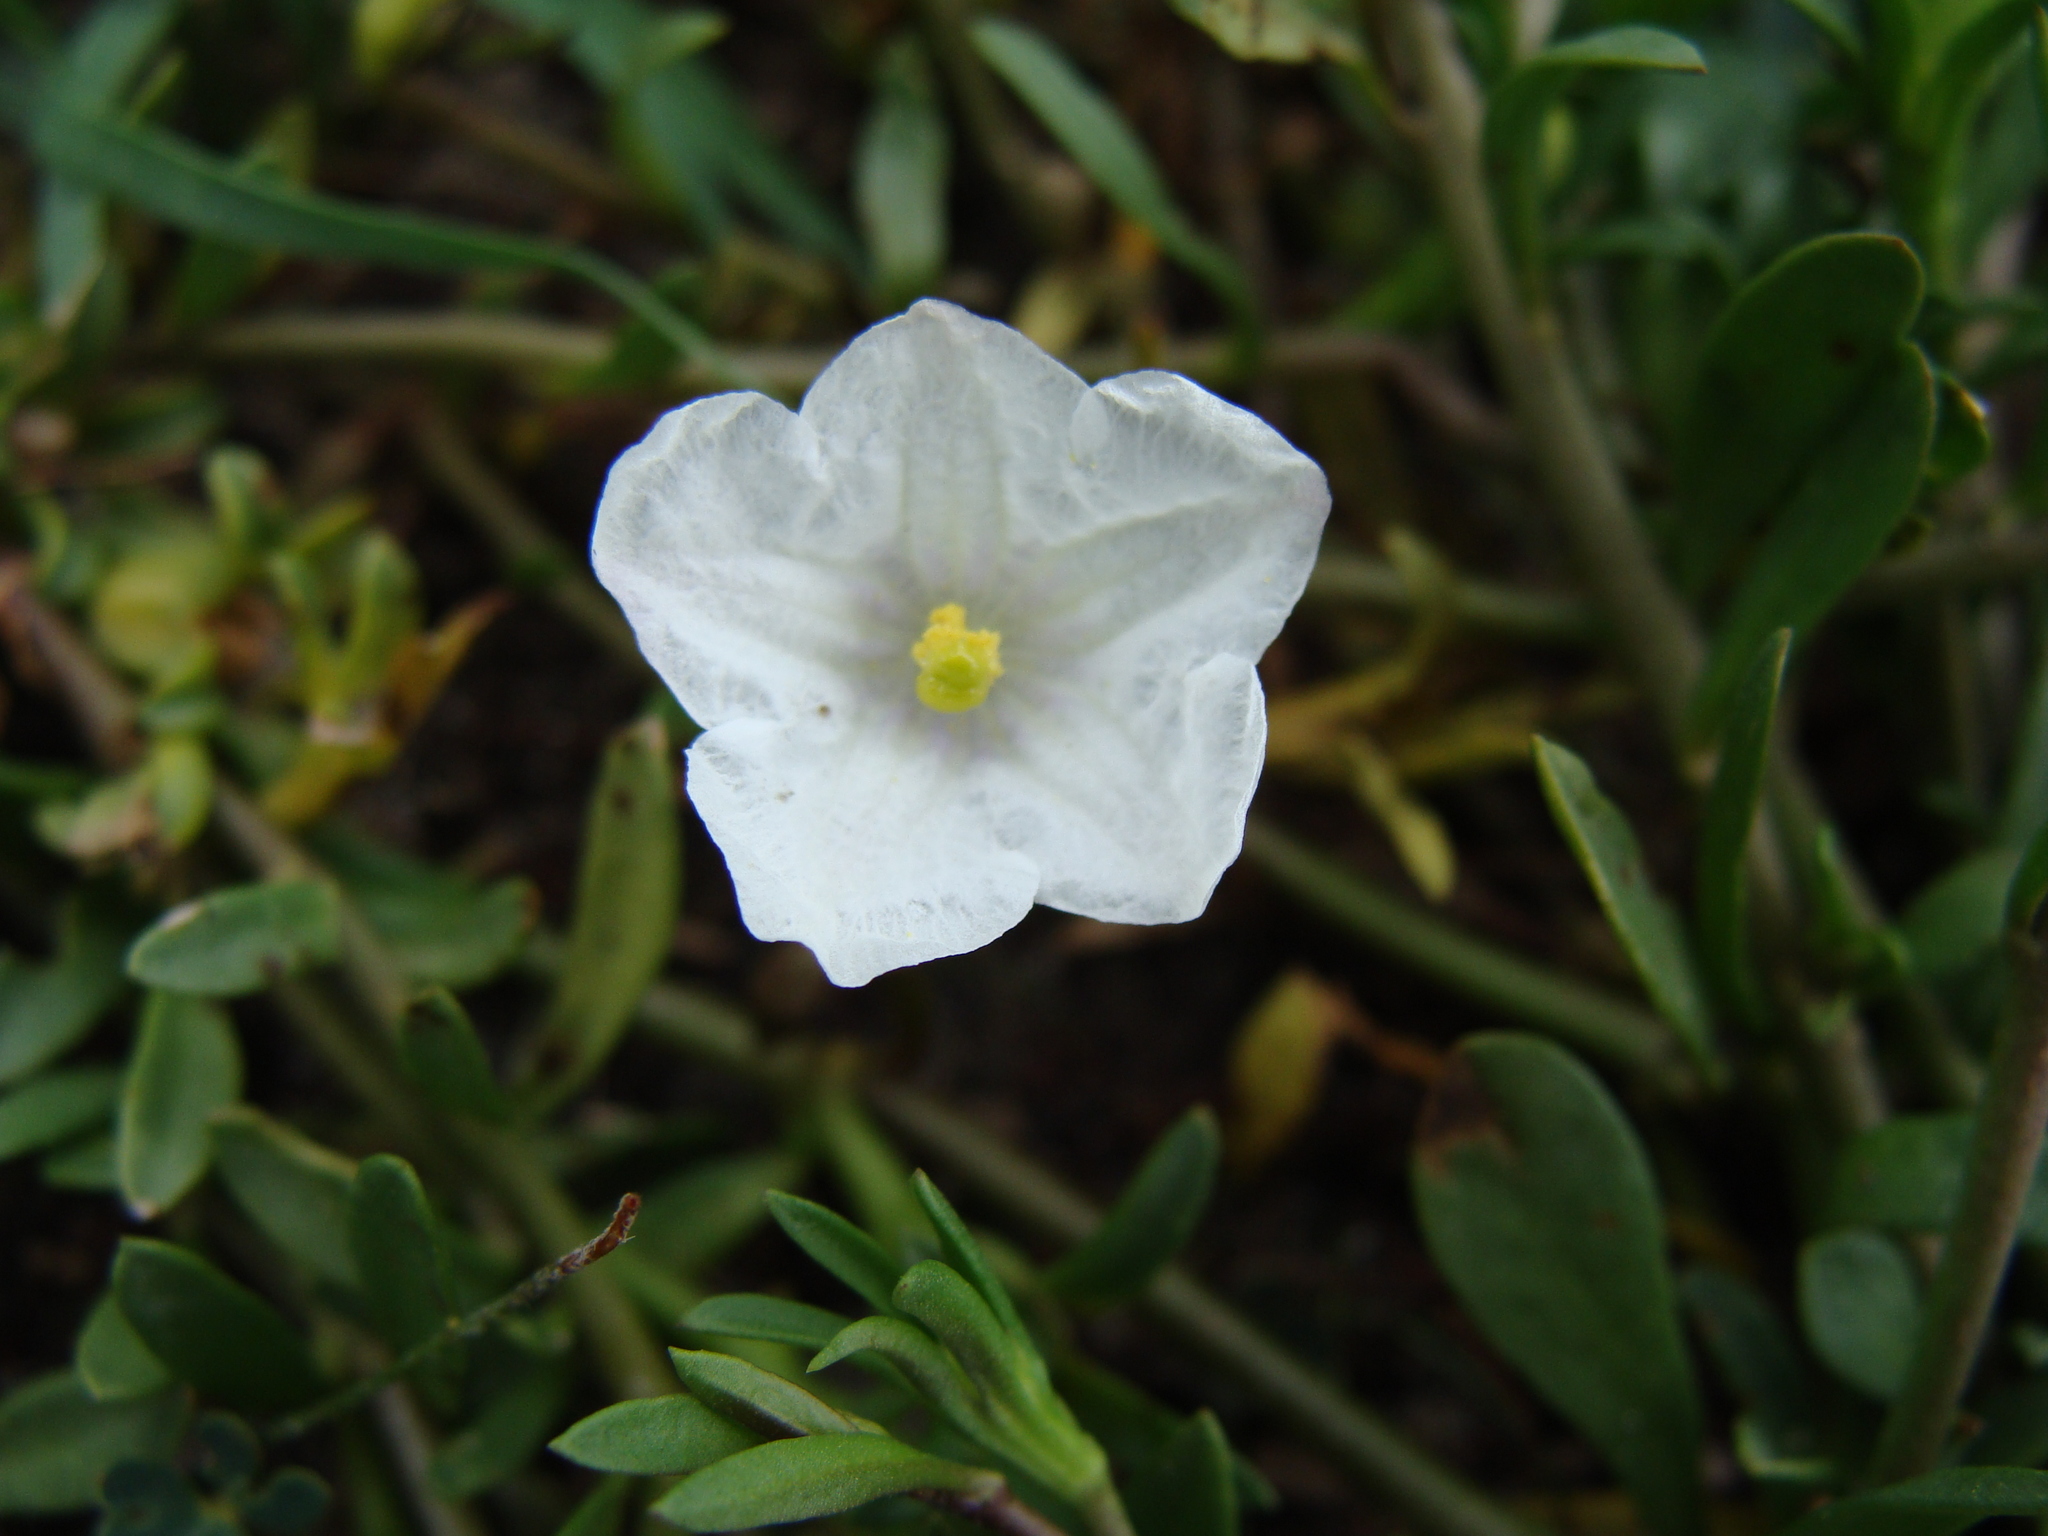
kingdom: Plantae
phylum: Tracheophyta
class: Magnoliopsida
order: Solanales
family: Solanaceae
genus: Salpiglossis
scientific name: Salpiglossis erecta
